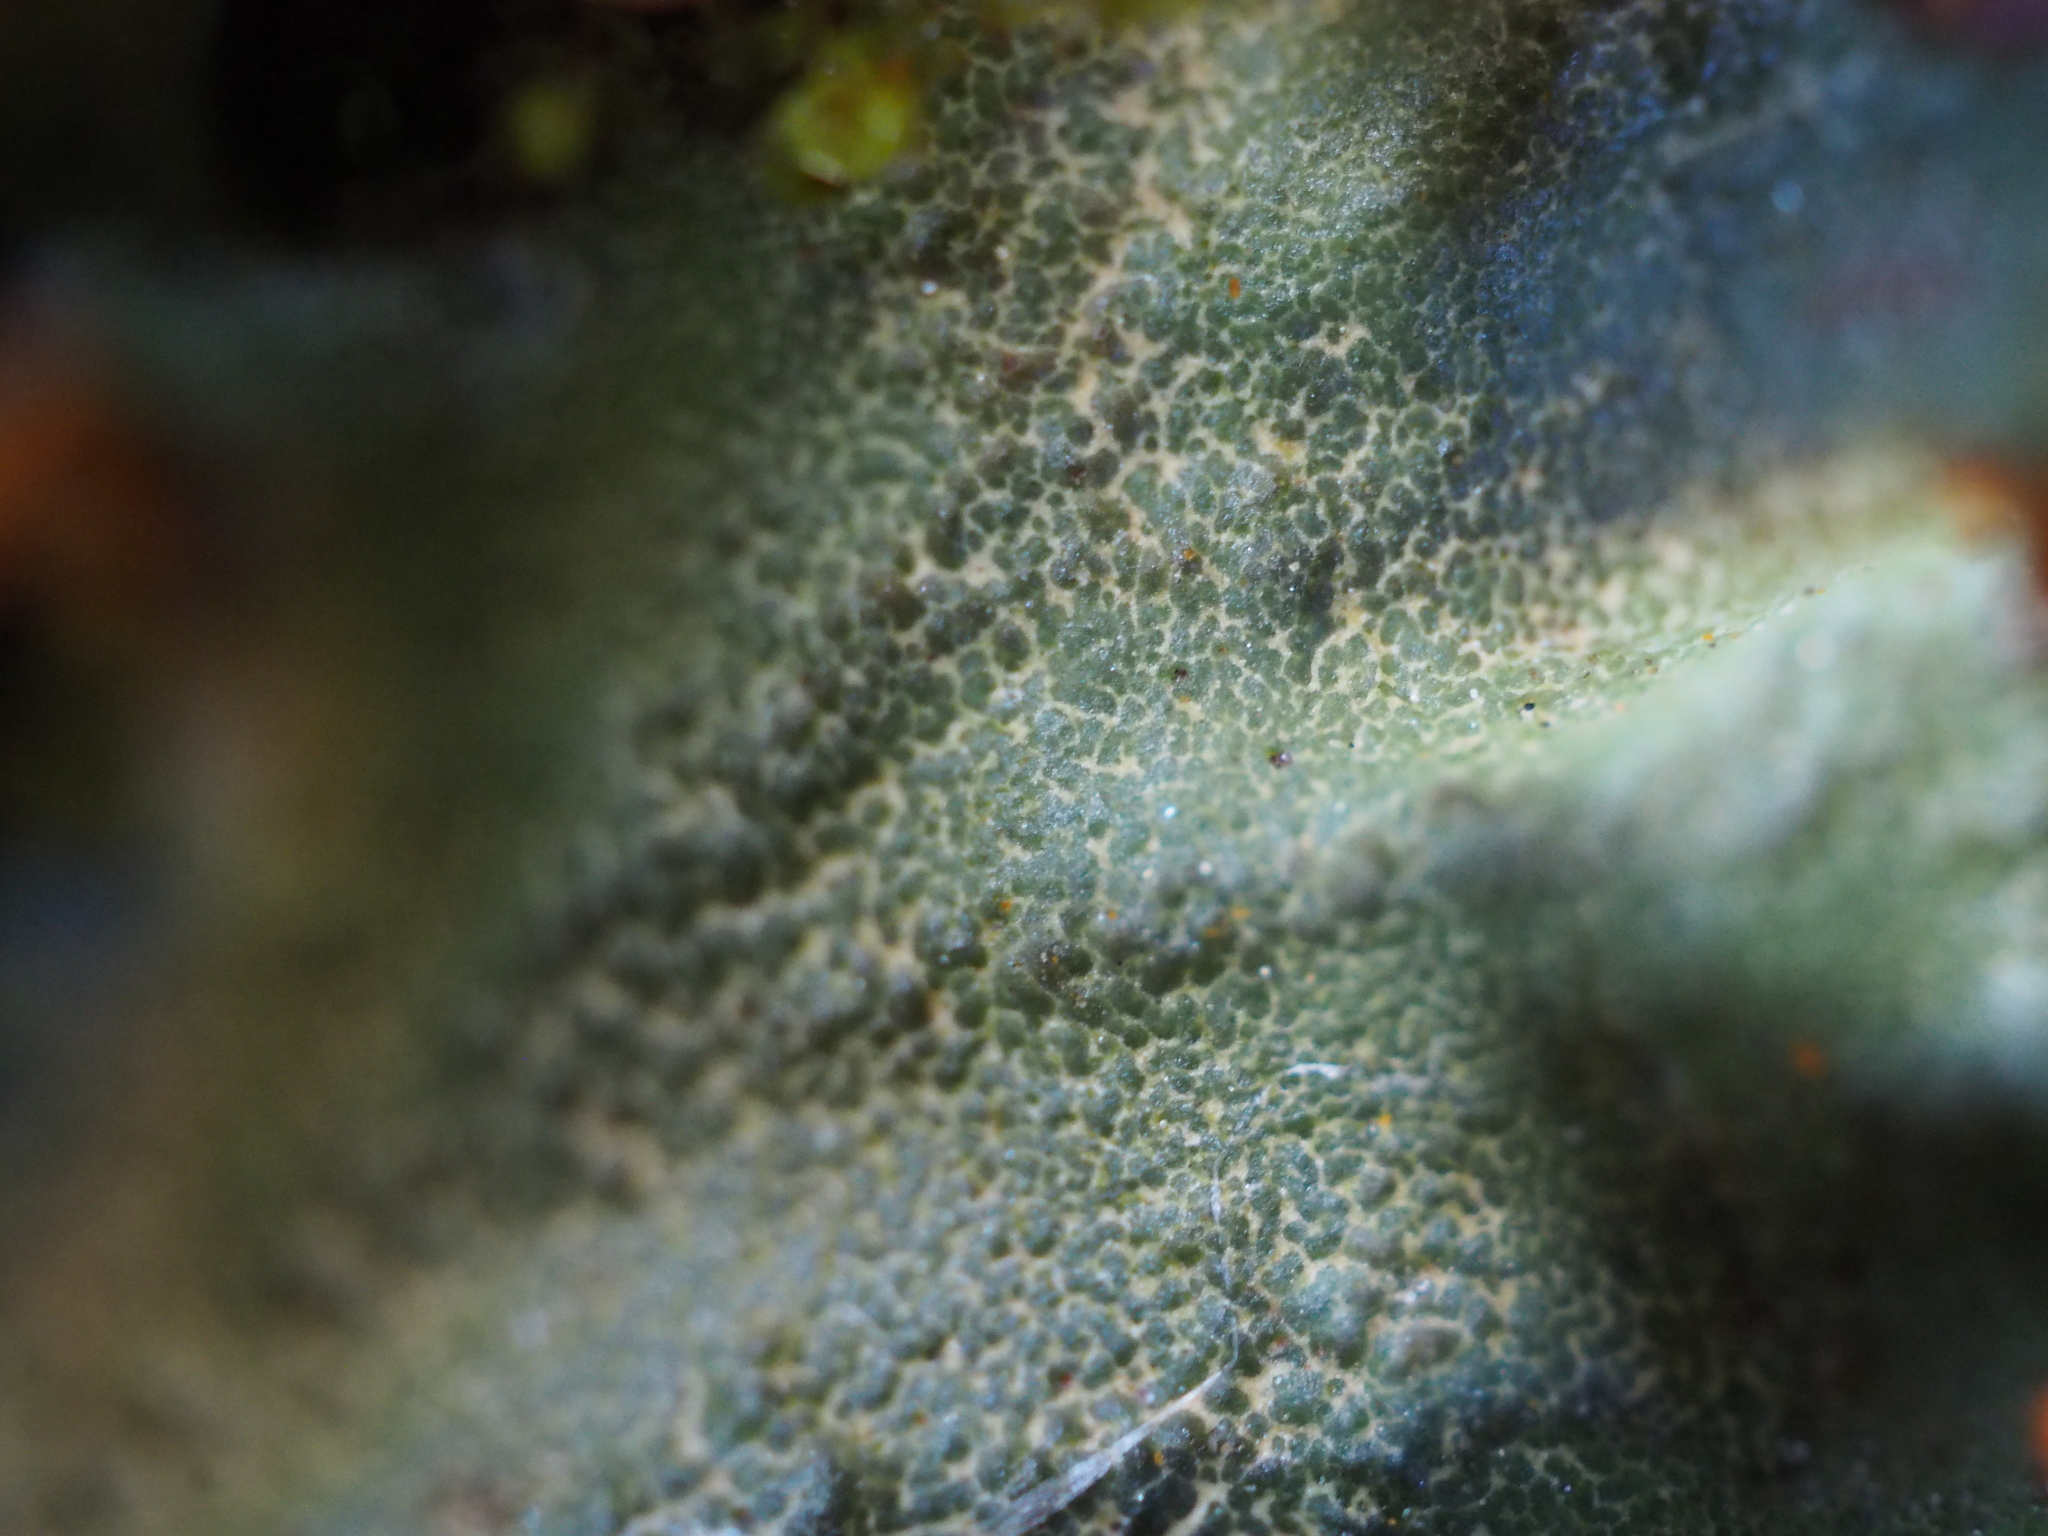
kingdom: Fungi
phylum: Ascomycota
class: Lecanoromycetes
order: Peltigerales
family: Peltigeraceae
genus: Solorina
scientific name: Solorina crocea
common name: Mountain saffron
